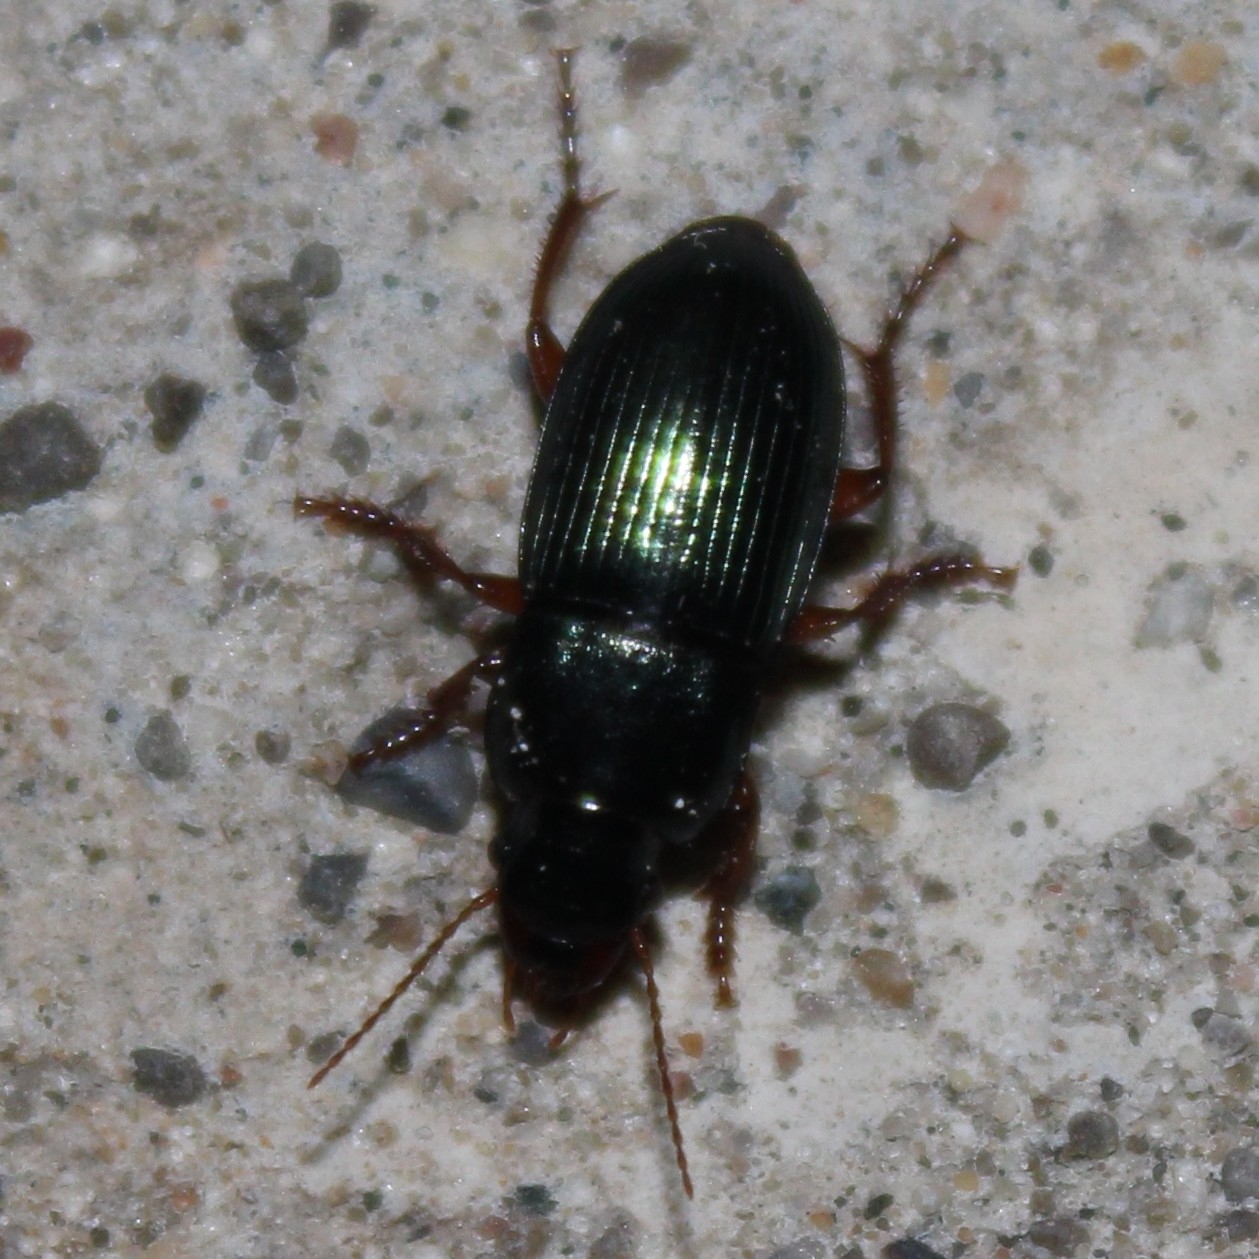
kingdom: Animalia
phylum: Arthropoda
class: Insecta
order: Coleoptera
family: Carabidae
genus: Harpalus
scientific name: Harpalus rubripes
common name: Red-legged harp ground beetle
